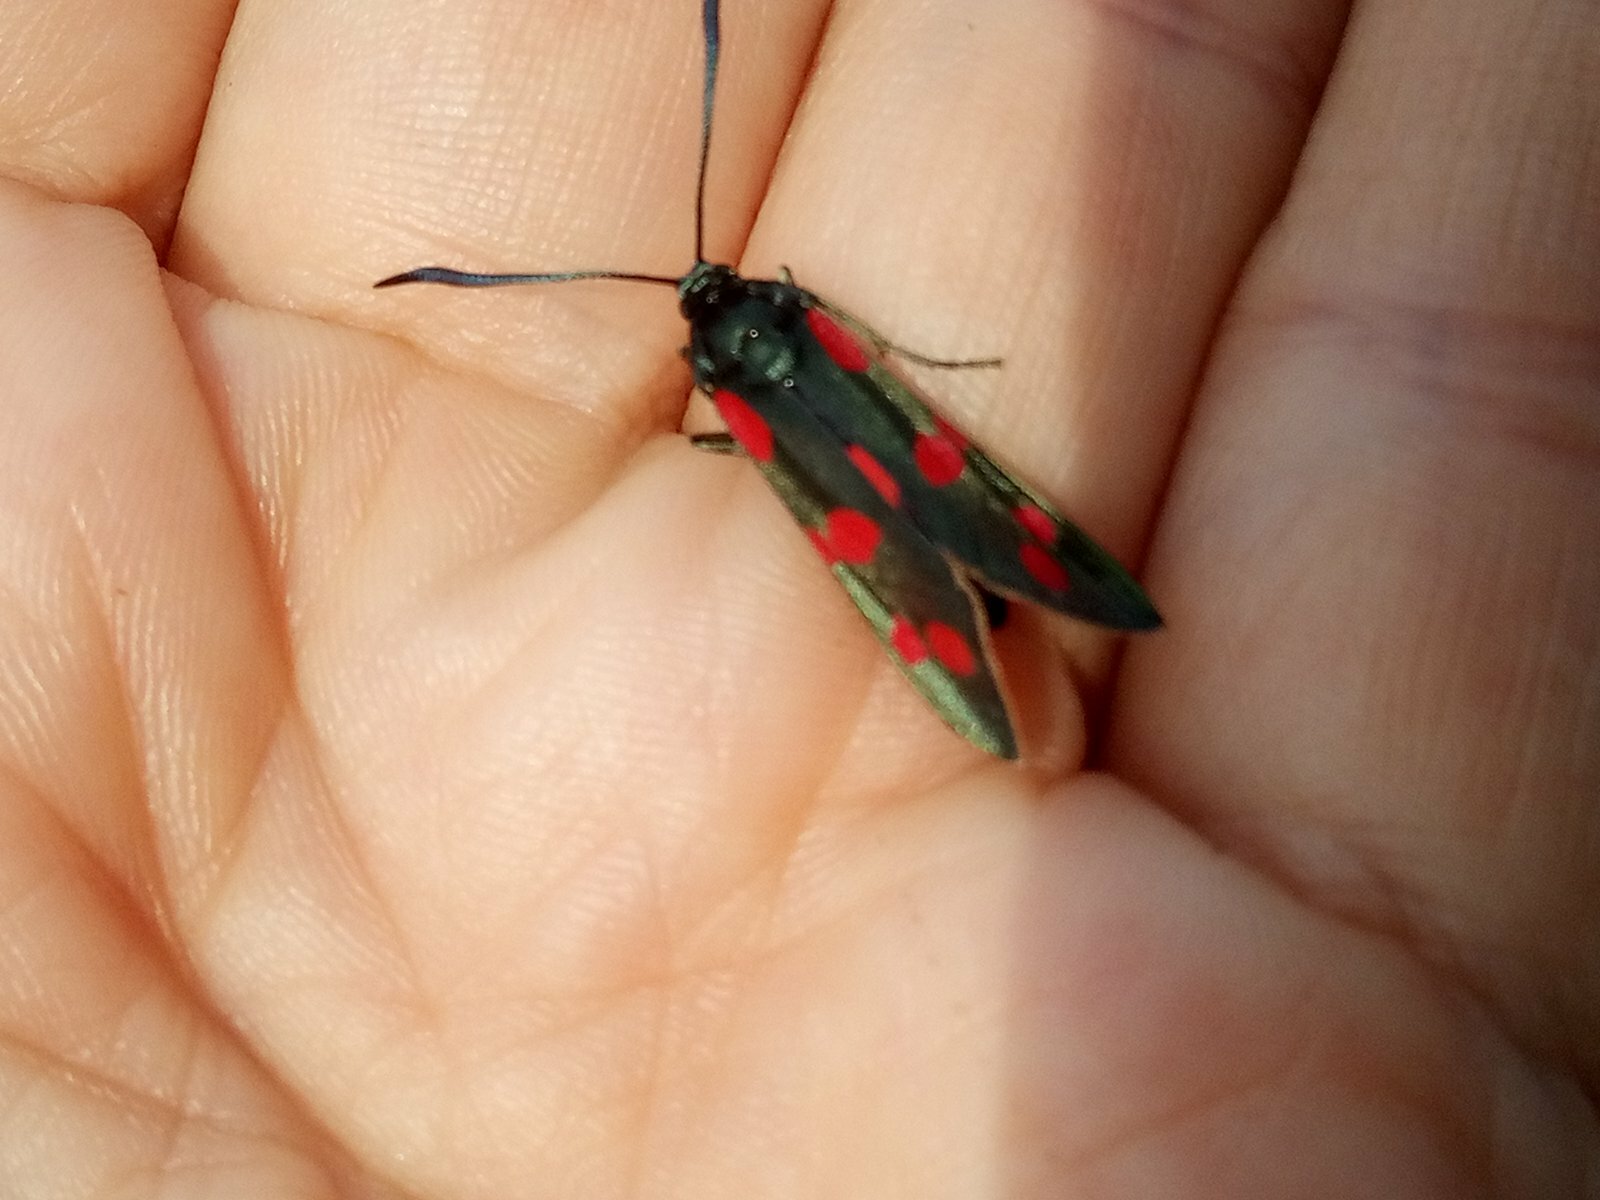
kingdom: Animalia
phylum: Arthropoda
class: Insecta
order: Lepidoptera
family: Zygaenidae
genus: Zygaena
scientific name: Zygaena filipendulae
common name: Six-spot burnet
